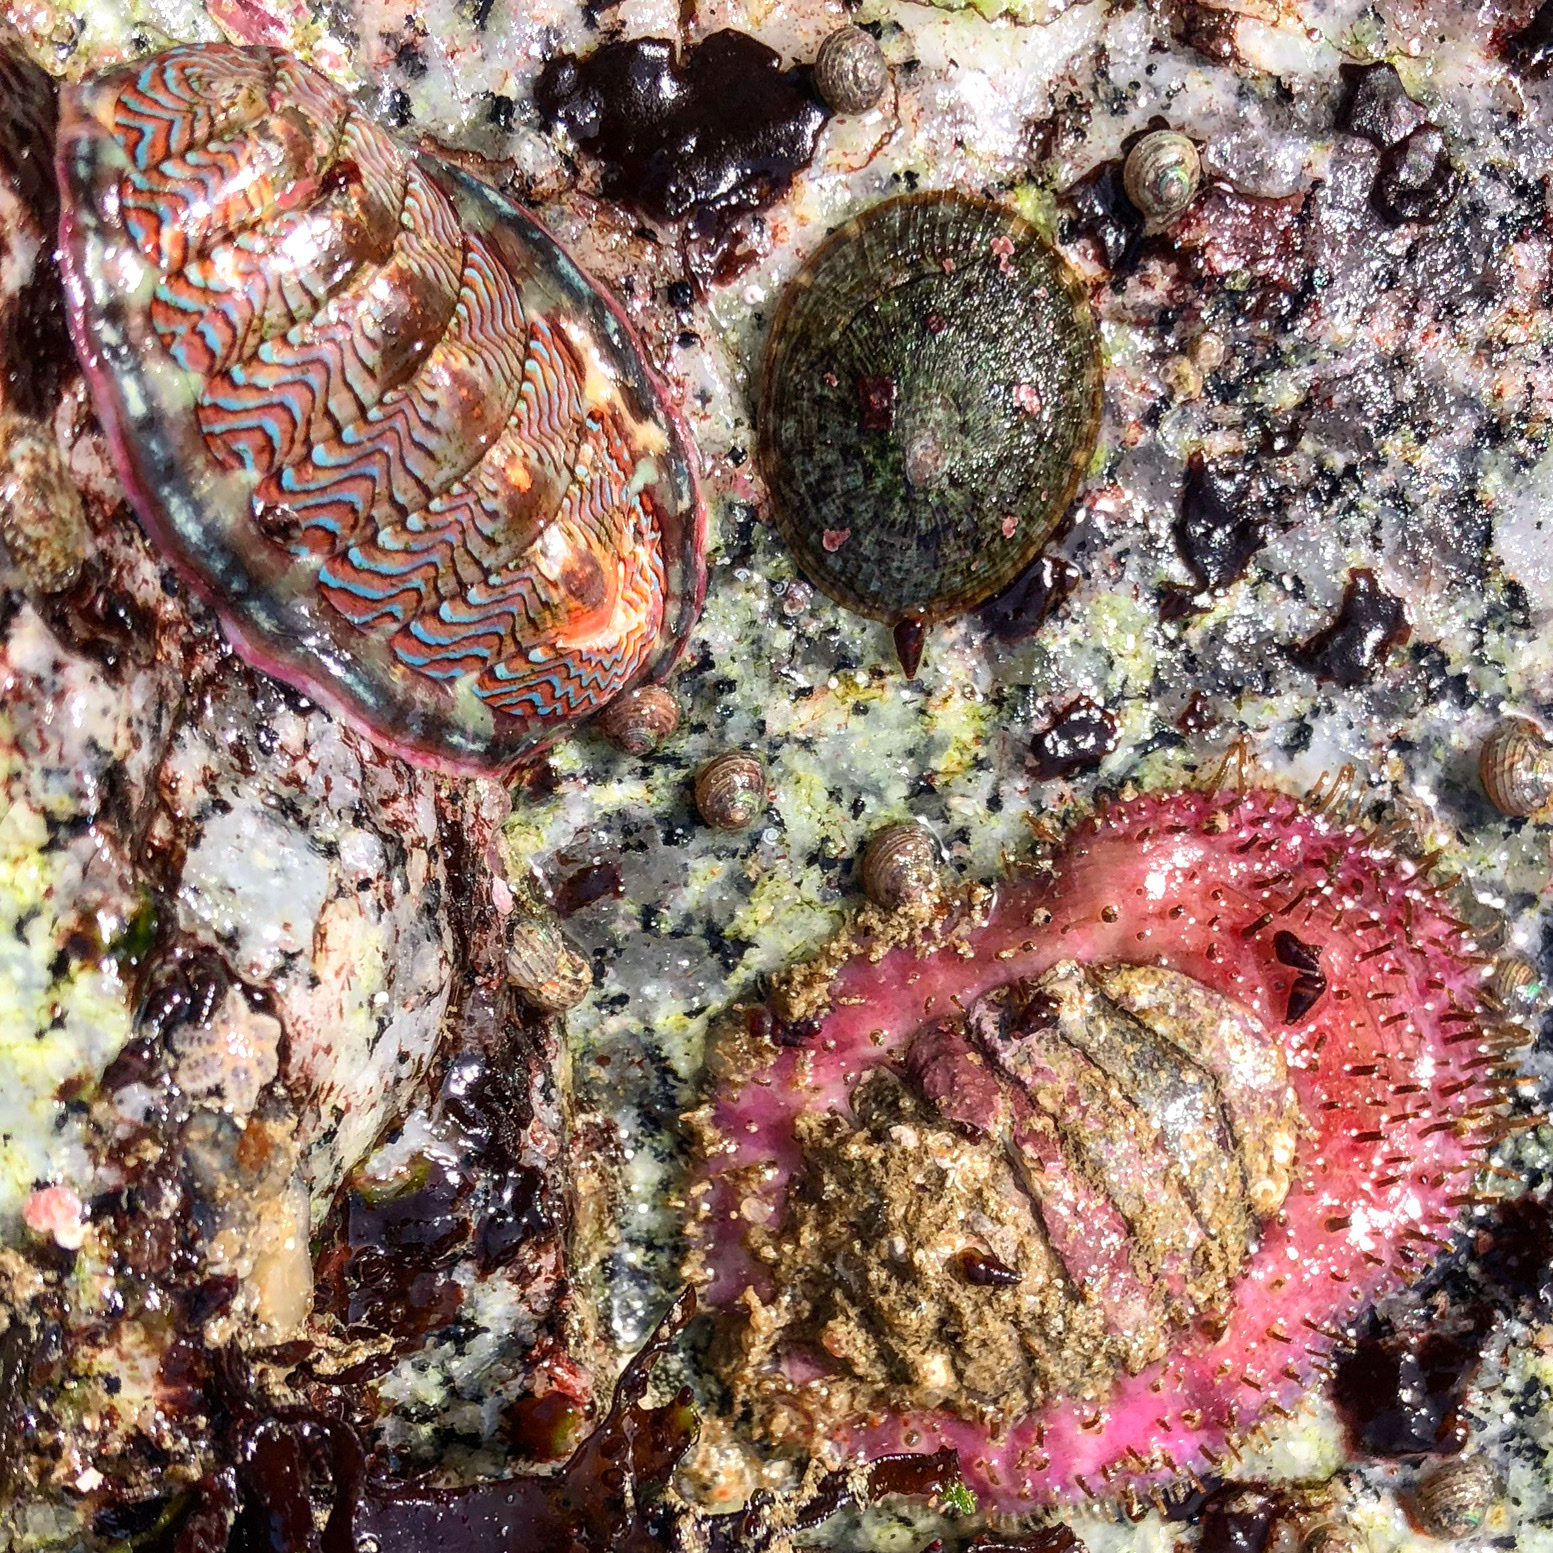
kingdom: Animalia
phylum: Mollusca
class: Polyplacophora
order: Chitonida
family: Mopaliidae
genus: Placiphorella
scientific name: Placiphorella velata
